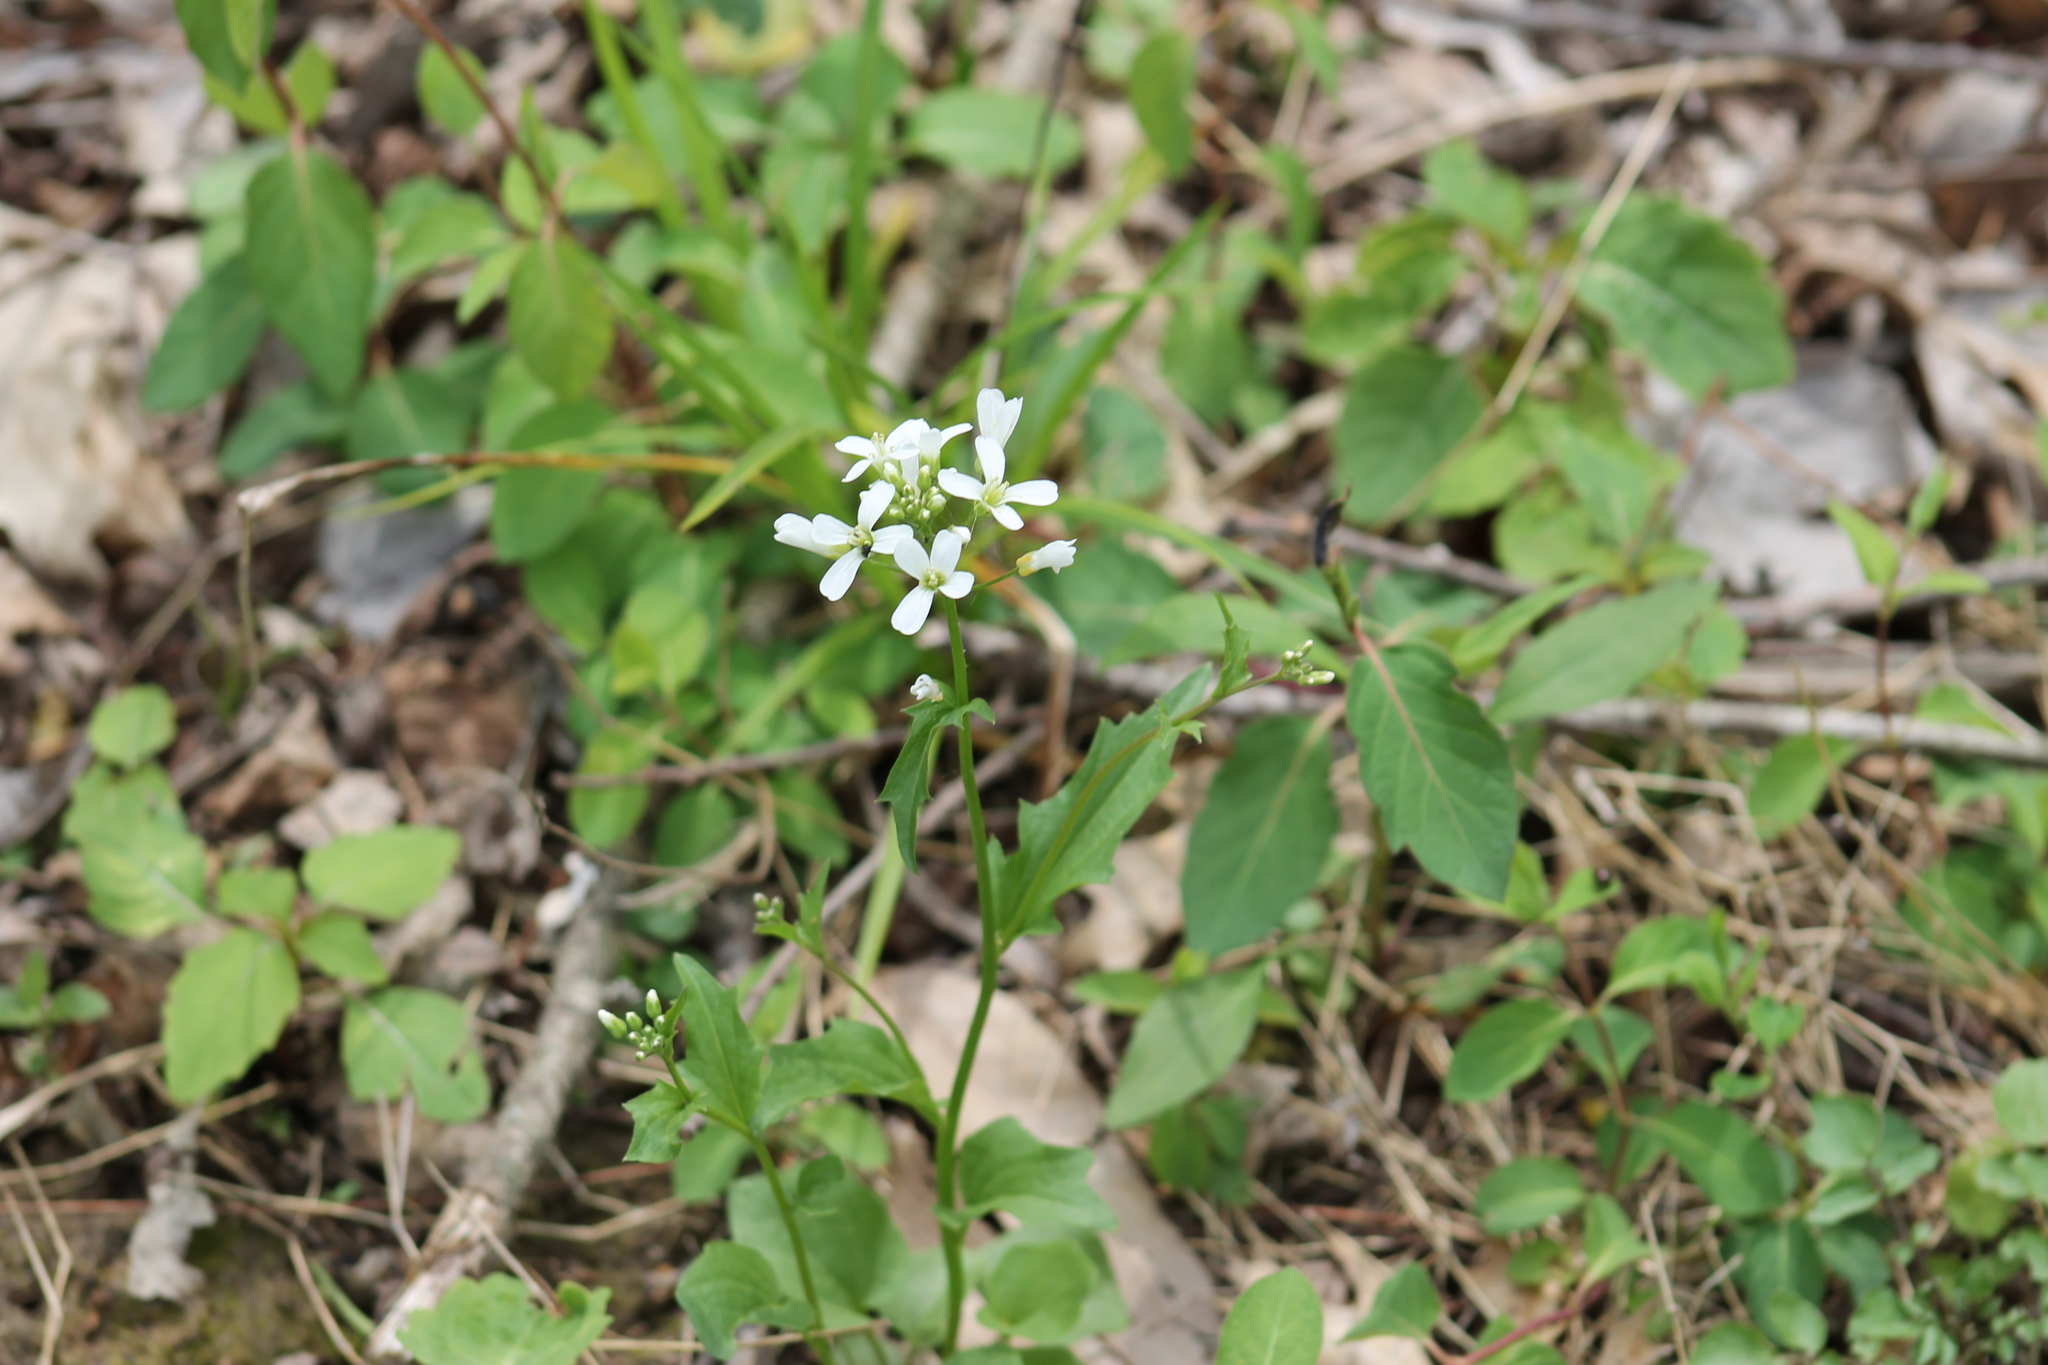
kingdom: Plantae
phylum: Tracheophyta
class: Magnoliopsida
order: Brassicales
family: Brassicaceae
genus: Cardamine
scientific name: Cardamine bulbosa
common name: Spring cress
